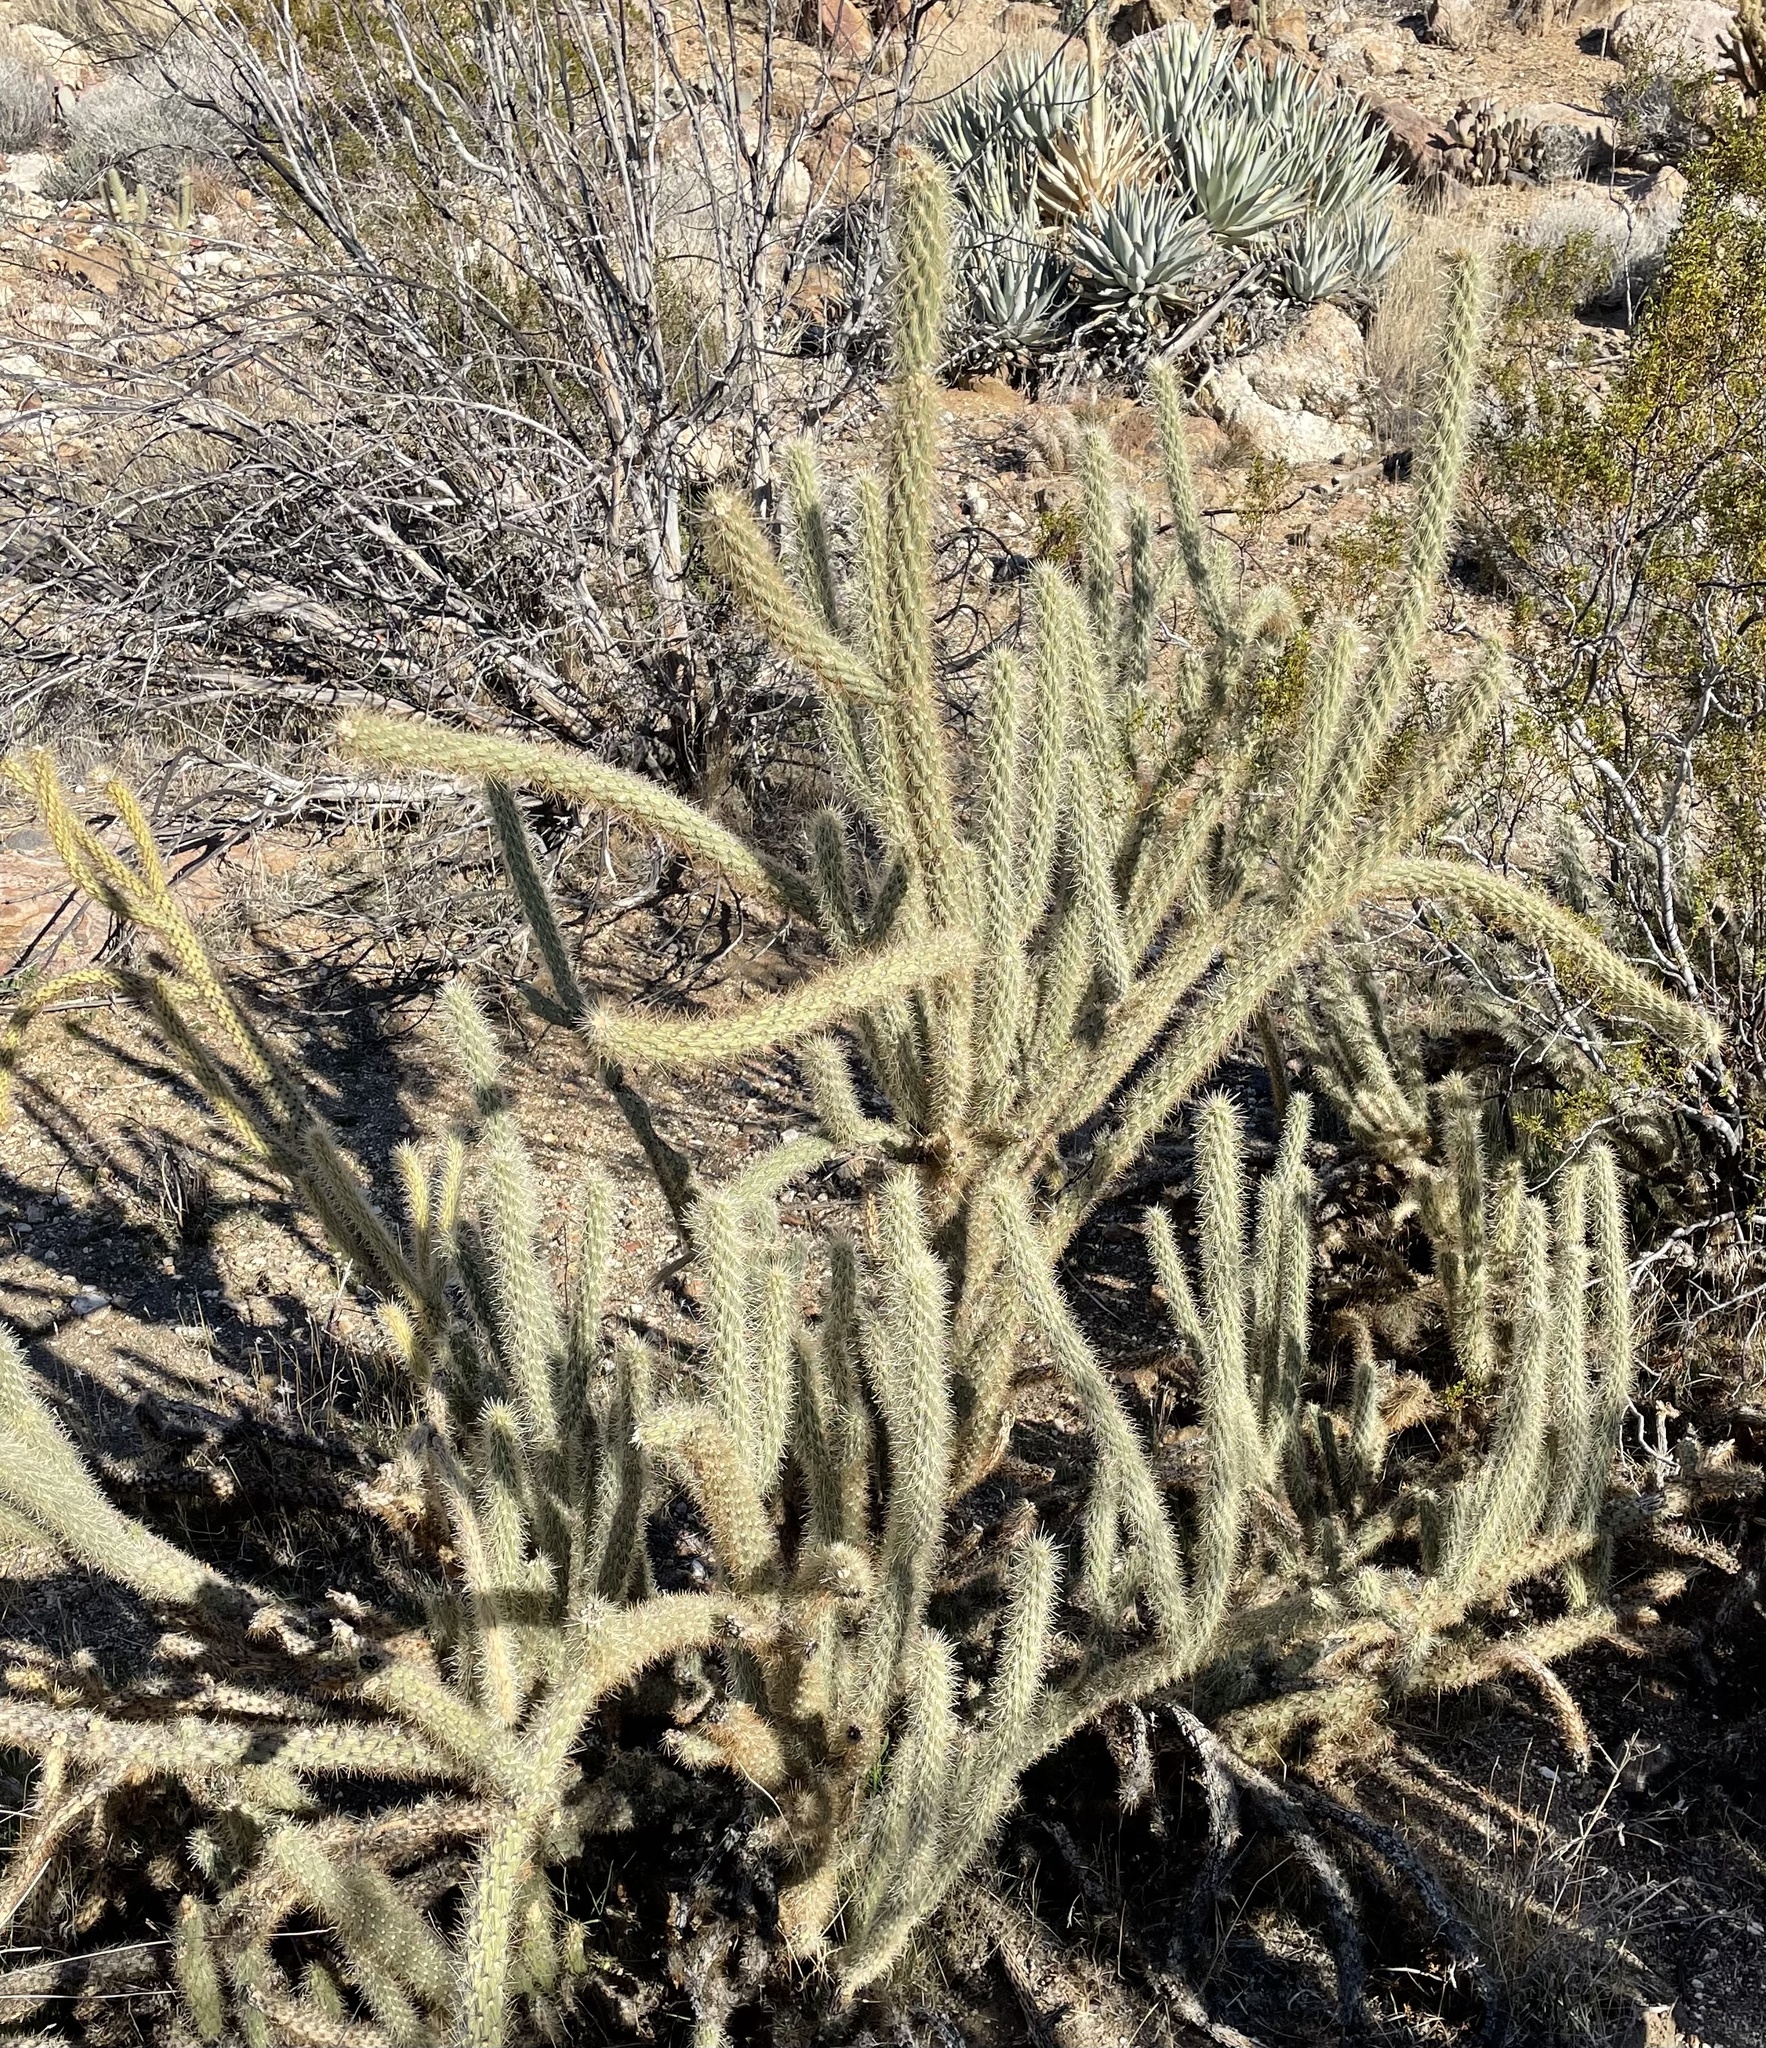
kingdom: Plantae
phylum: Tracheophyta
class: Magnoliopsida
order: Caryophyllales
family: Cactaceae
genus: Cylindropuntia
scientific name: Cylindropuntia ganderi
